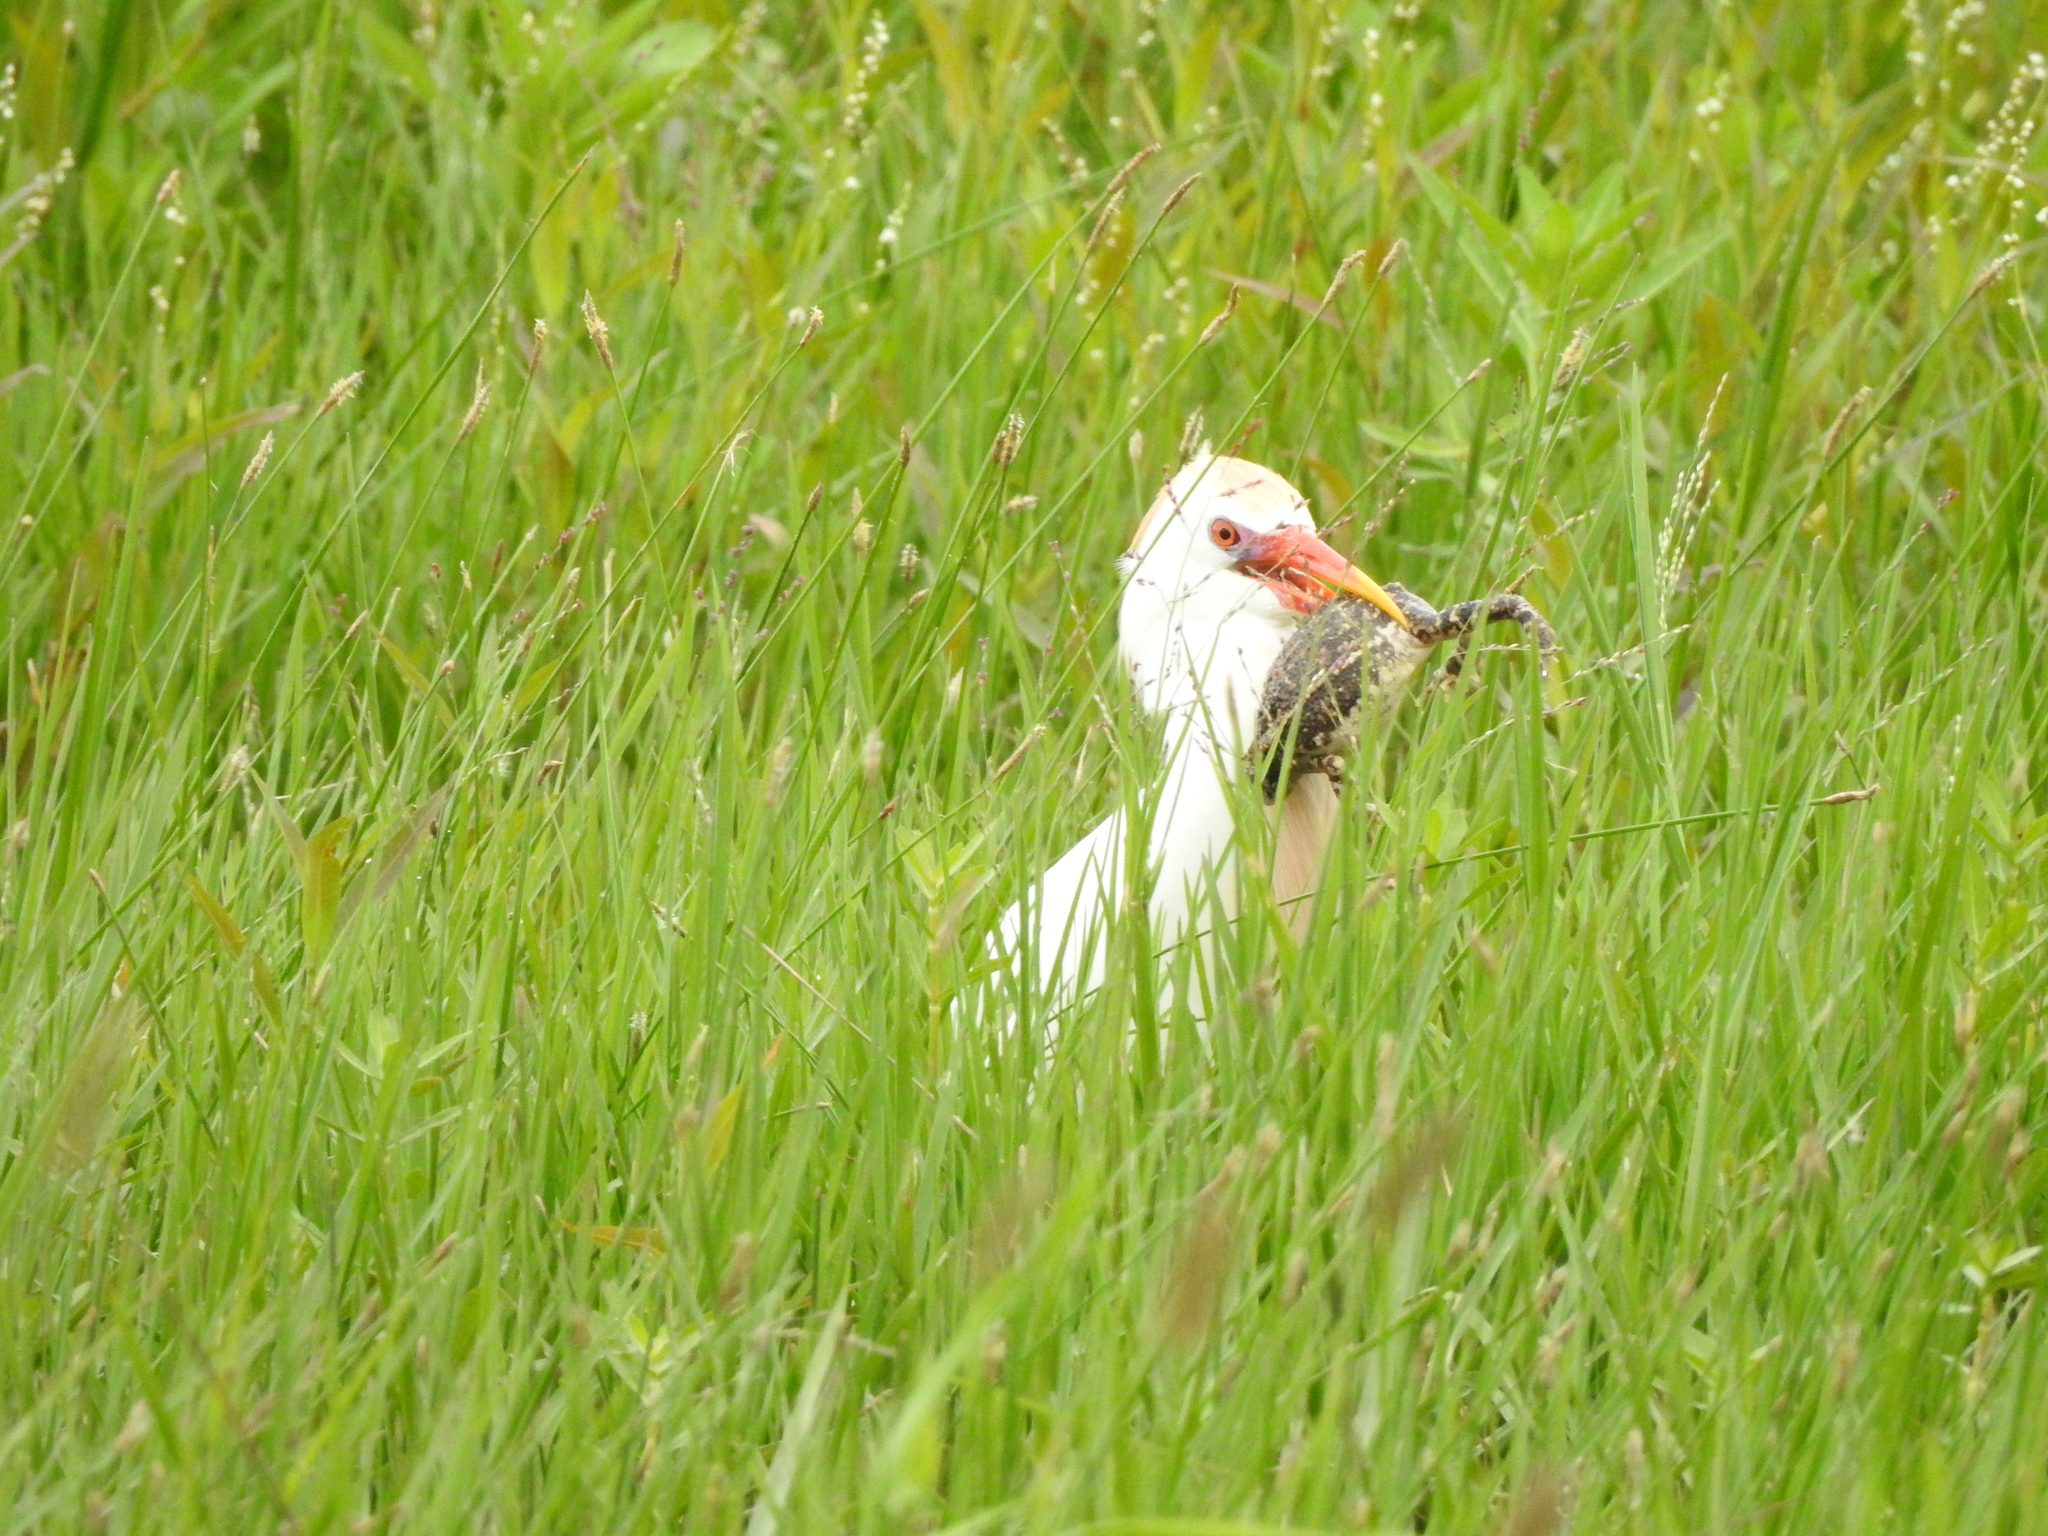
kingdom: Animalia
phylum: Chordata
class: Amphibia
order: Anura
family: Bufonidae
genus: Incilius
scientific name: Incilius nebulifer
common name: Gulf coast toad
